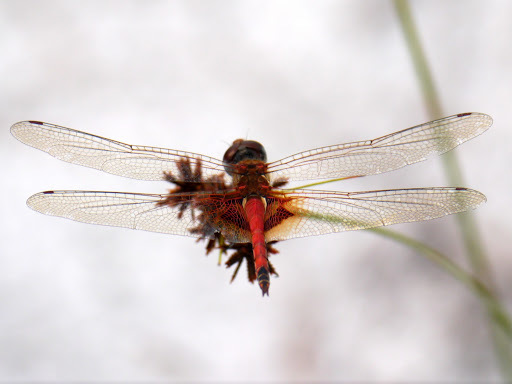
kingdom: Animalia
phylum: Arthropoda
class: Insecta
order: Odonata
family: Libellulidae
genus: Tramea
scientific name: Tramea basilaris
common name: Keyhole glider
